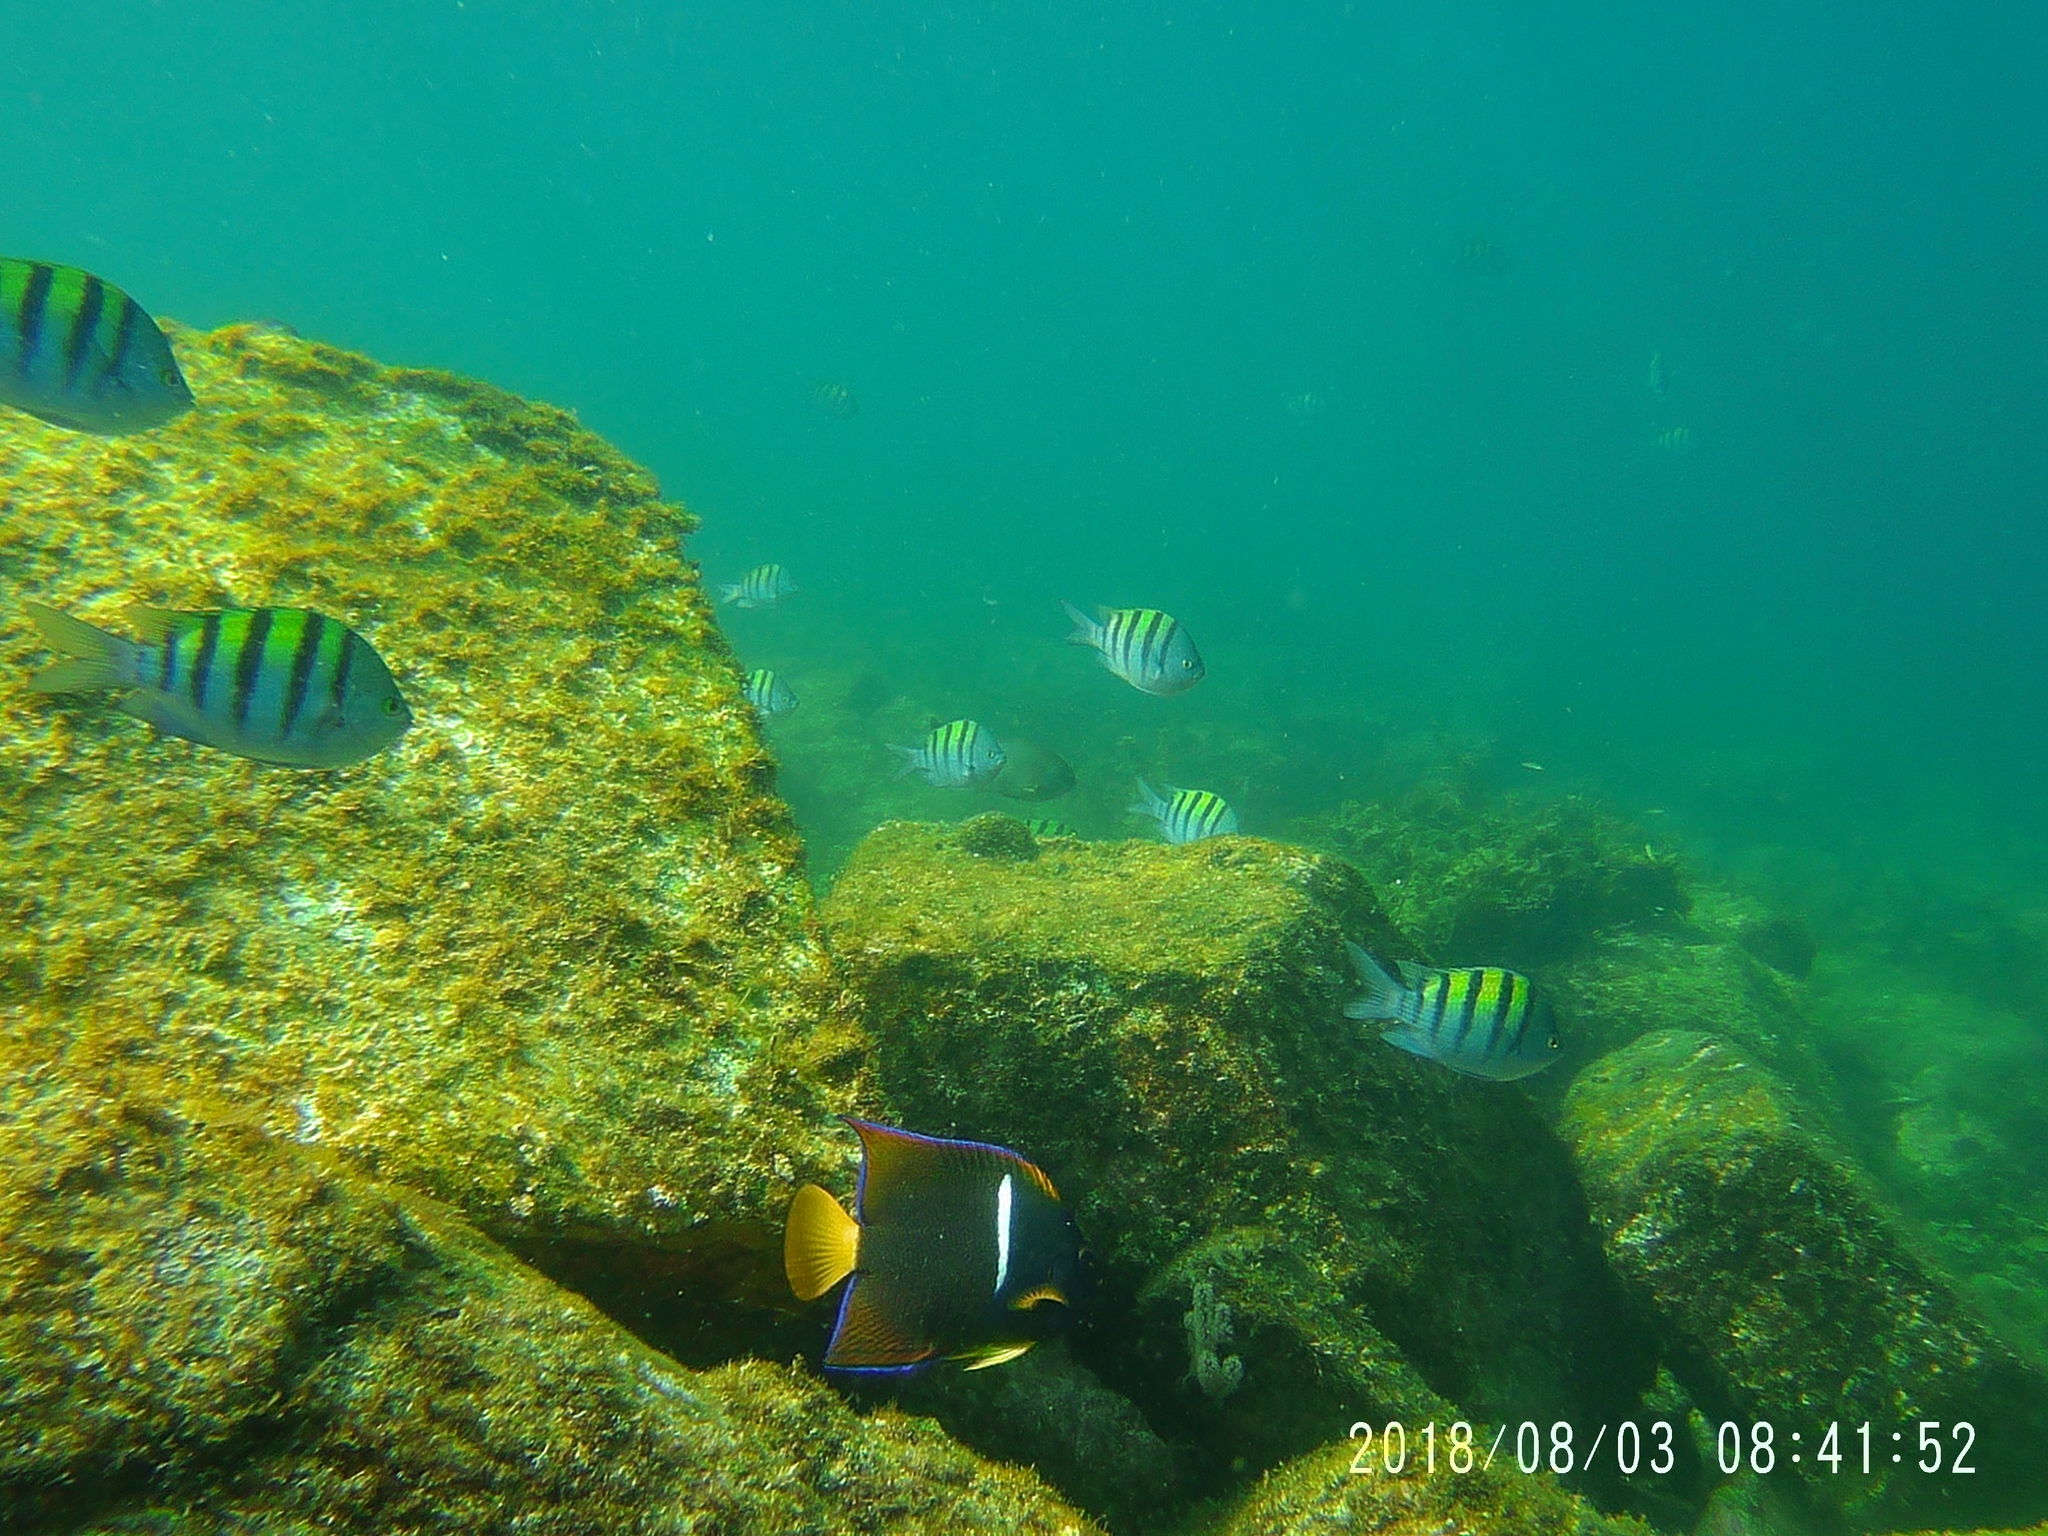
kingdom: Animalia
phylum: Chordata
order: Perciformes
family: Pomacanthidae
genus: Holacanthus
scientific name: Holacanthus passer
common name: King angelfish
